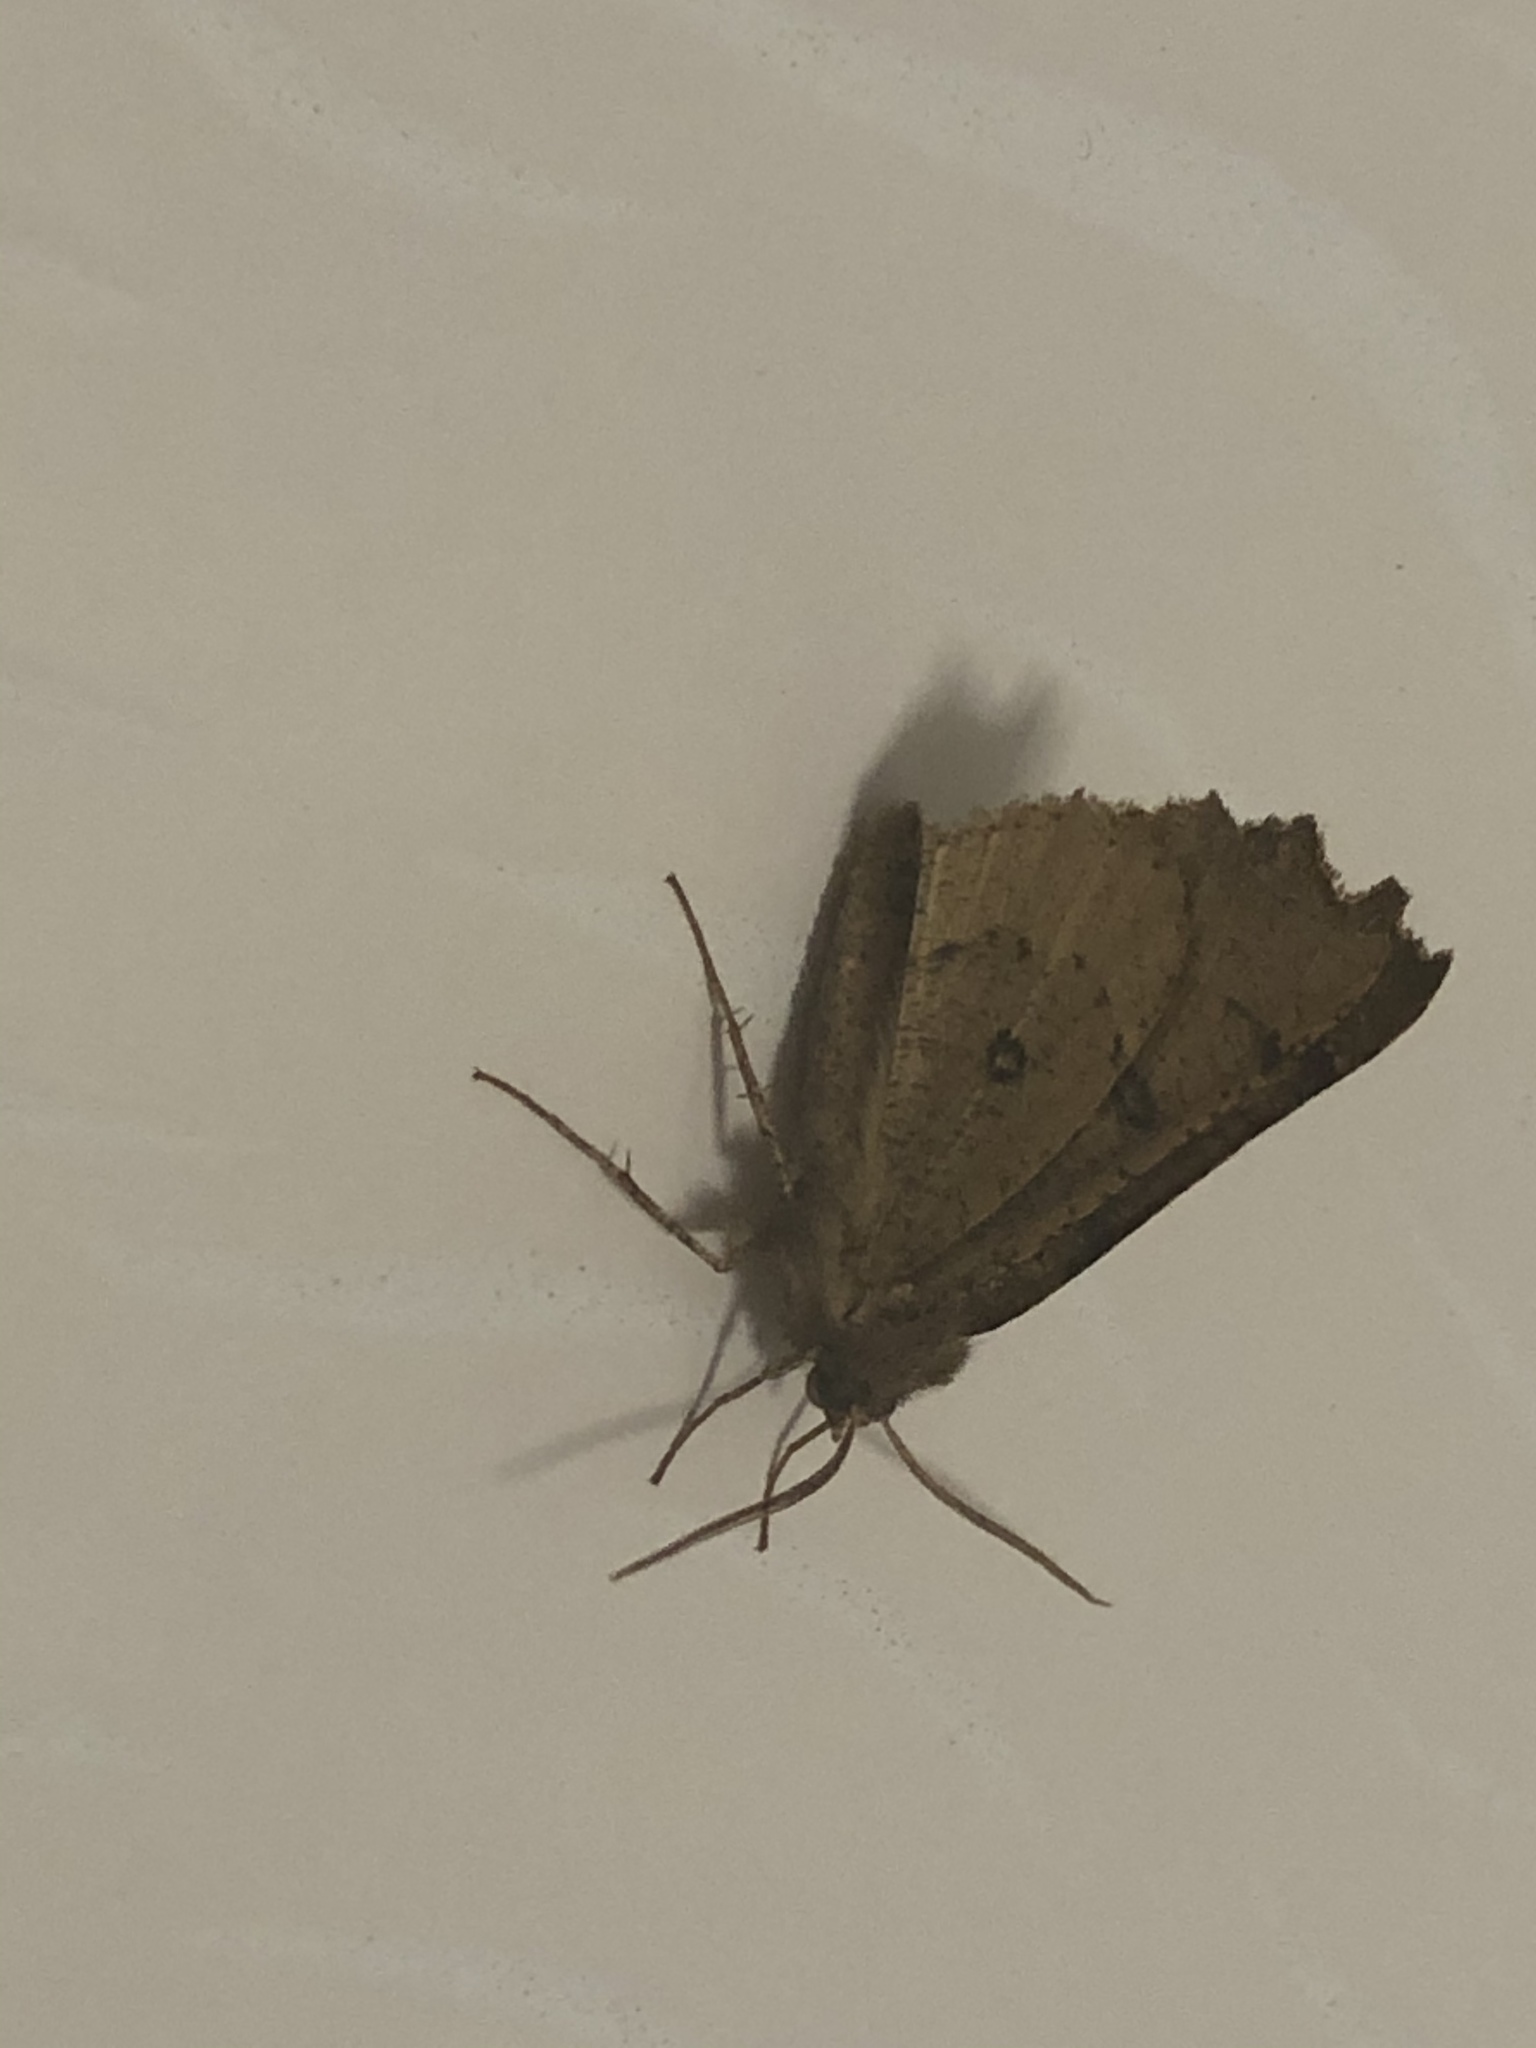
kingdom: Animalia
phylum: Arthropoda
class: Insecta
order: Lepidoptera
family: Geometridae
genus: Odontopera
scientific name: Odontopera bidentata
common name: Scalloped hazel
